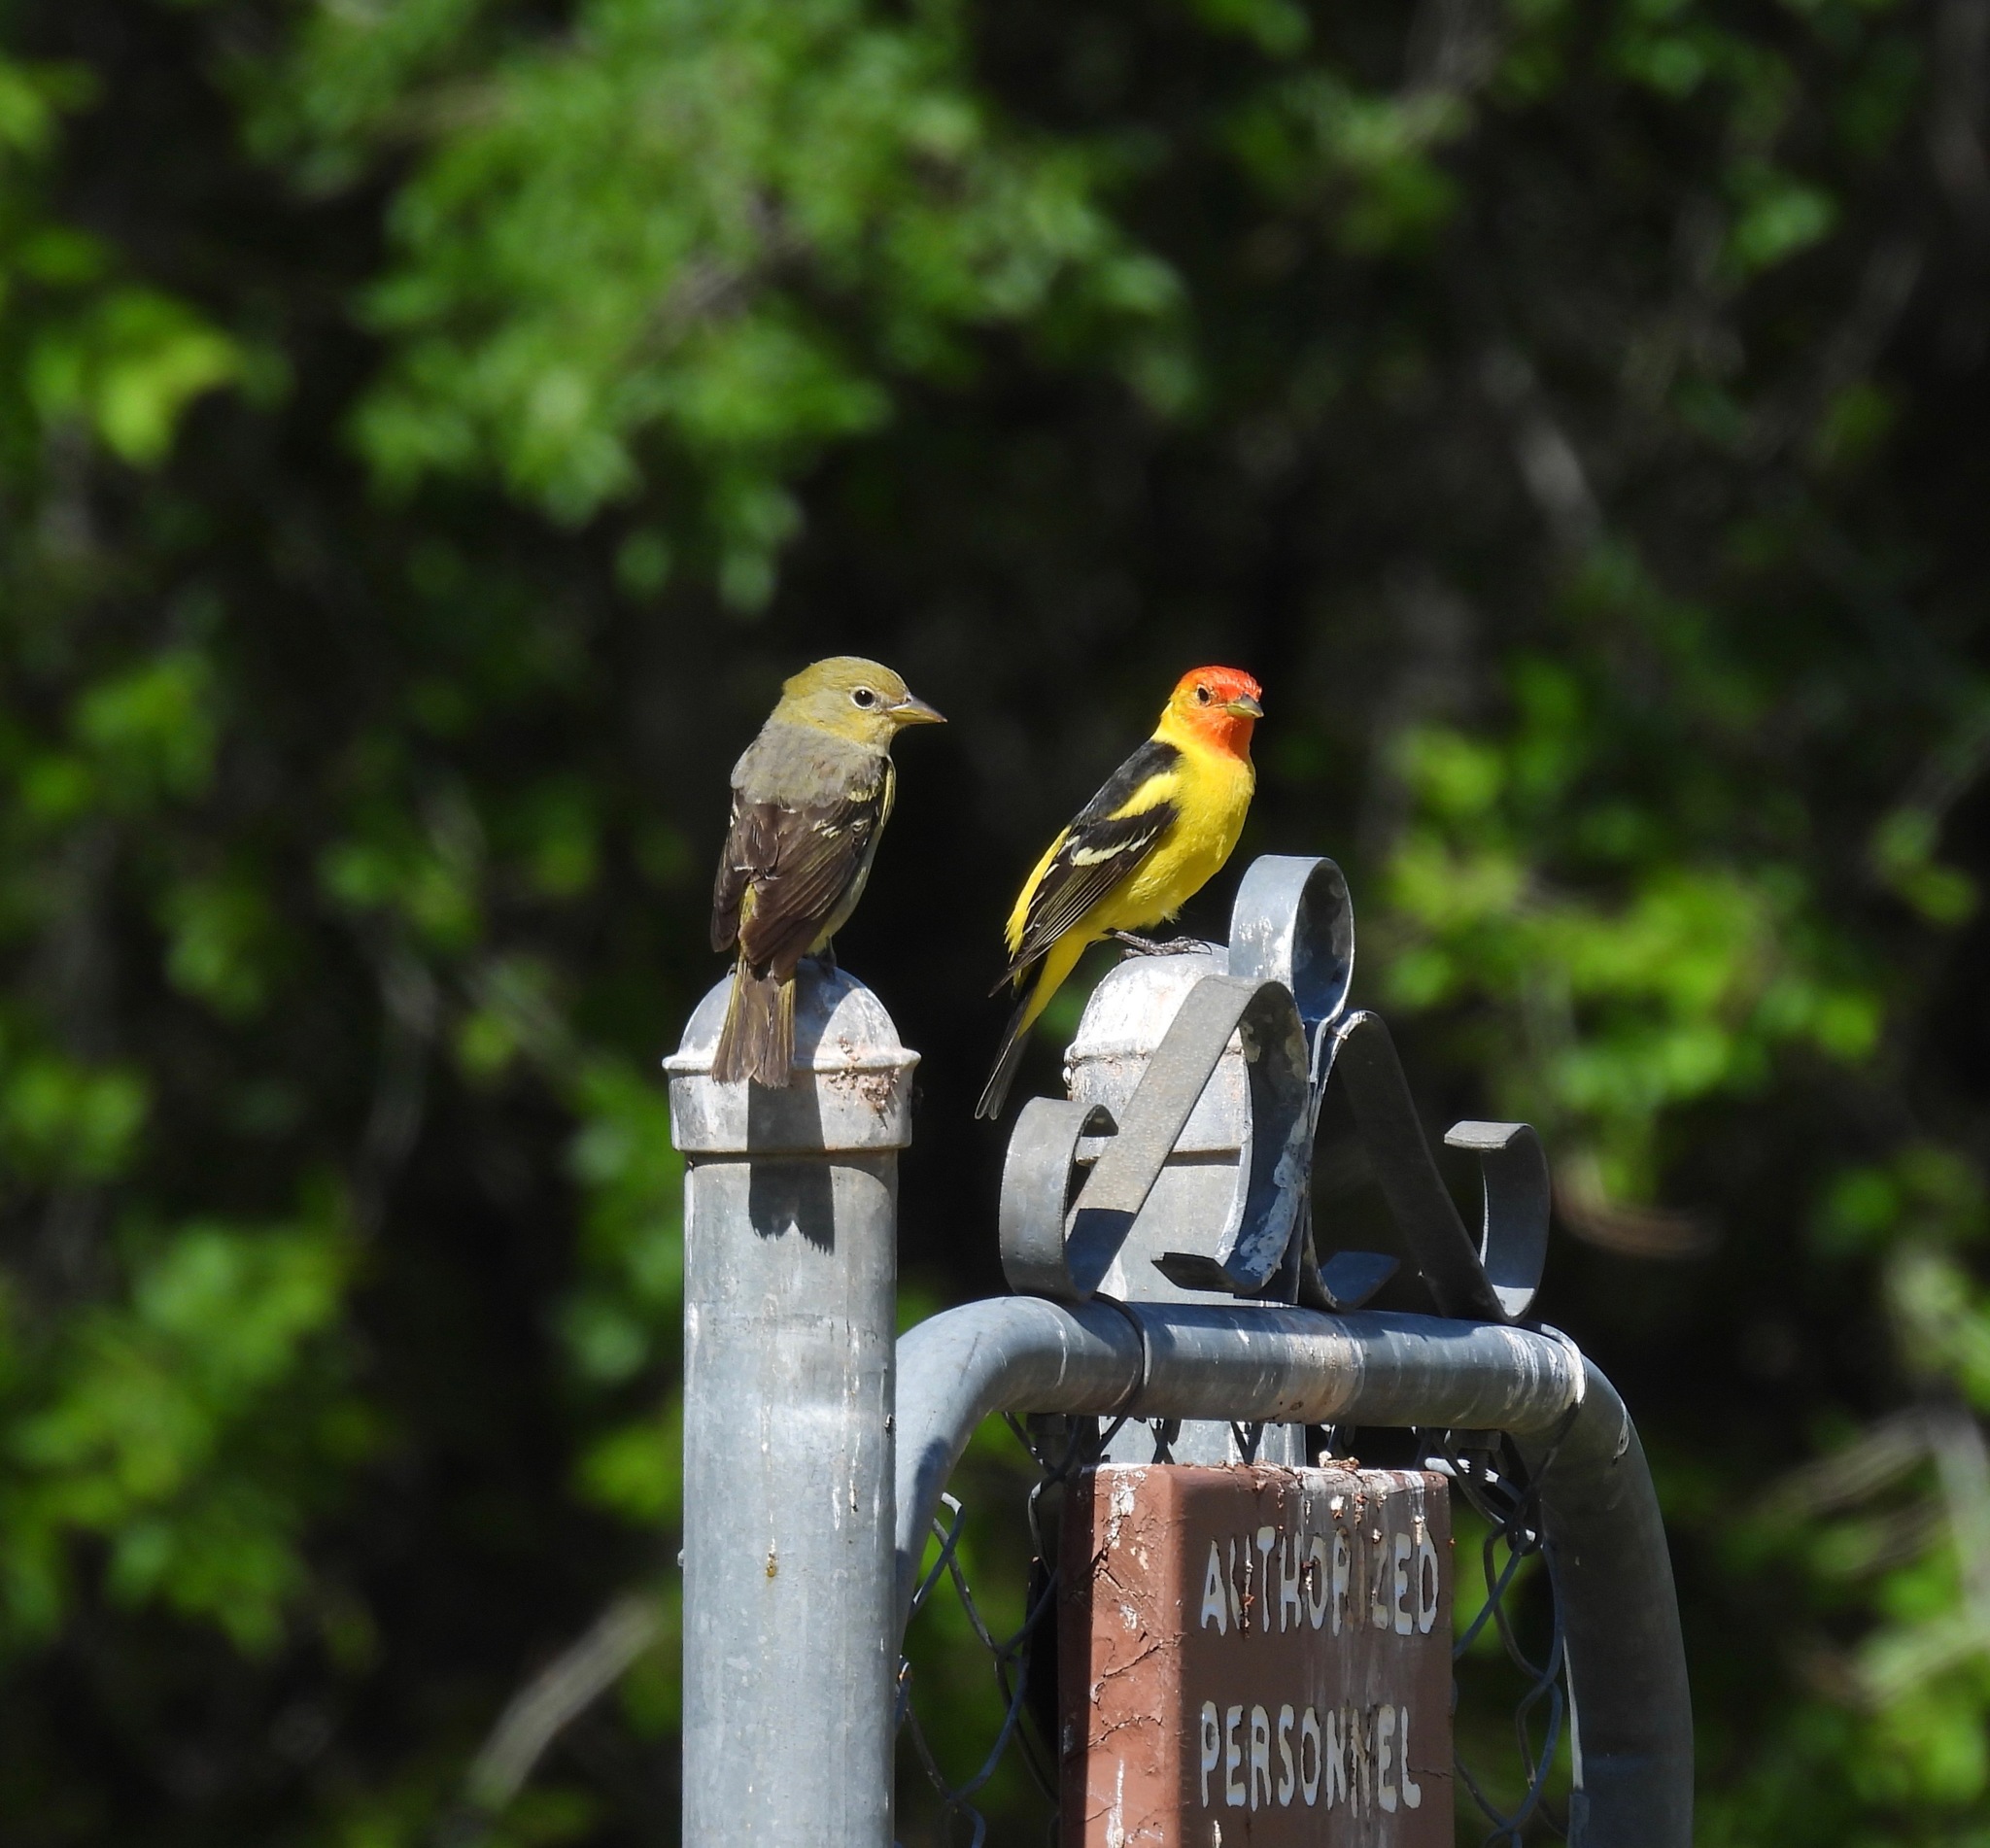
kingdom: Animalia
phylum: Chordata
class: Aves
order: Passeriformes
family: Cardinalidae
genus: Piranga
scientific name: Piranga ludoviciana
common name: Western tanager
